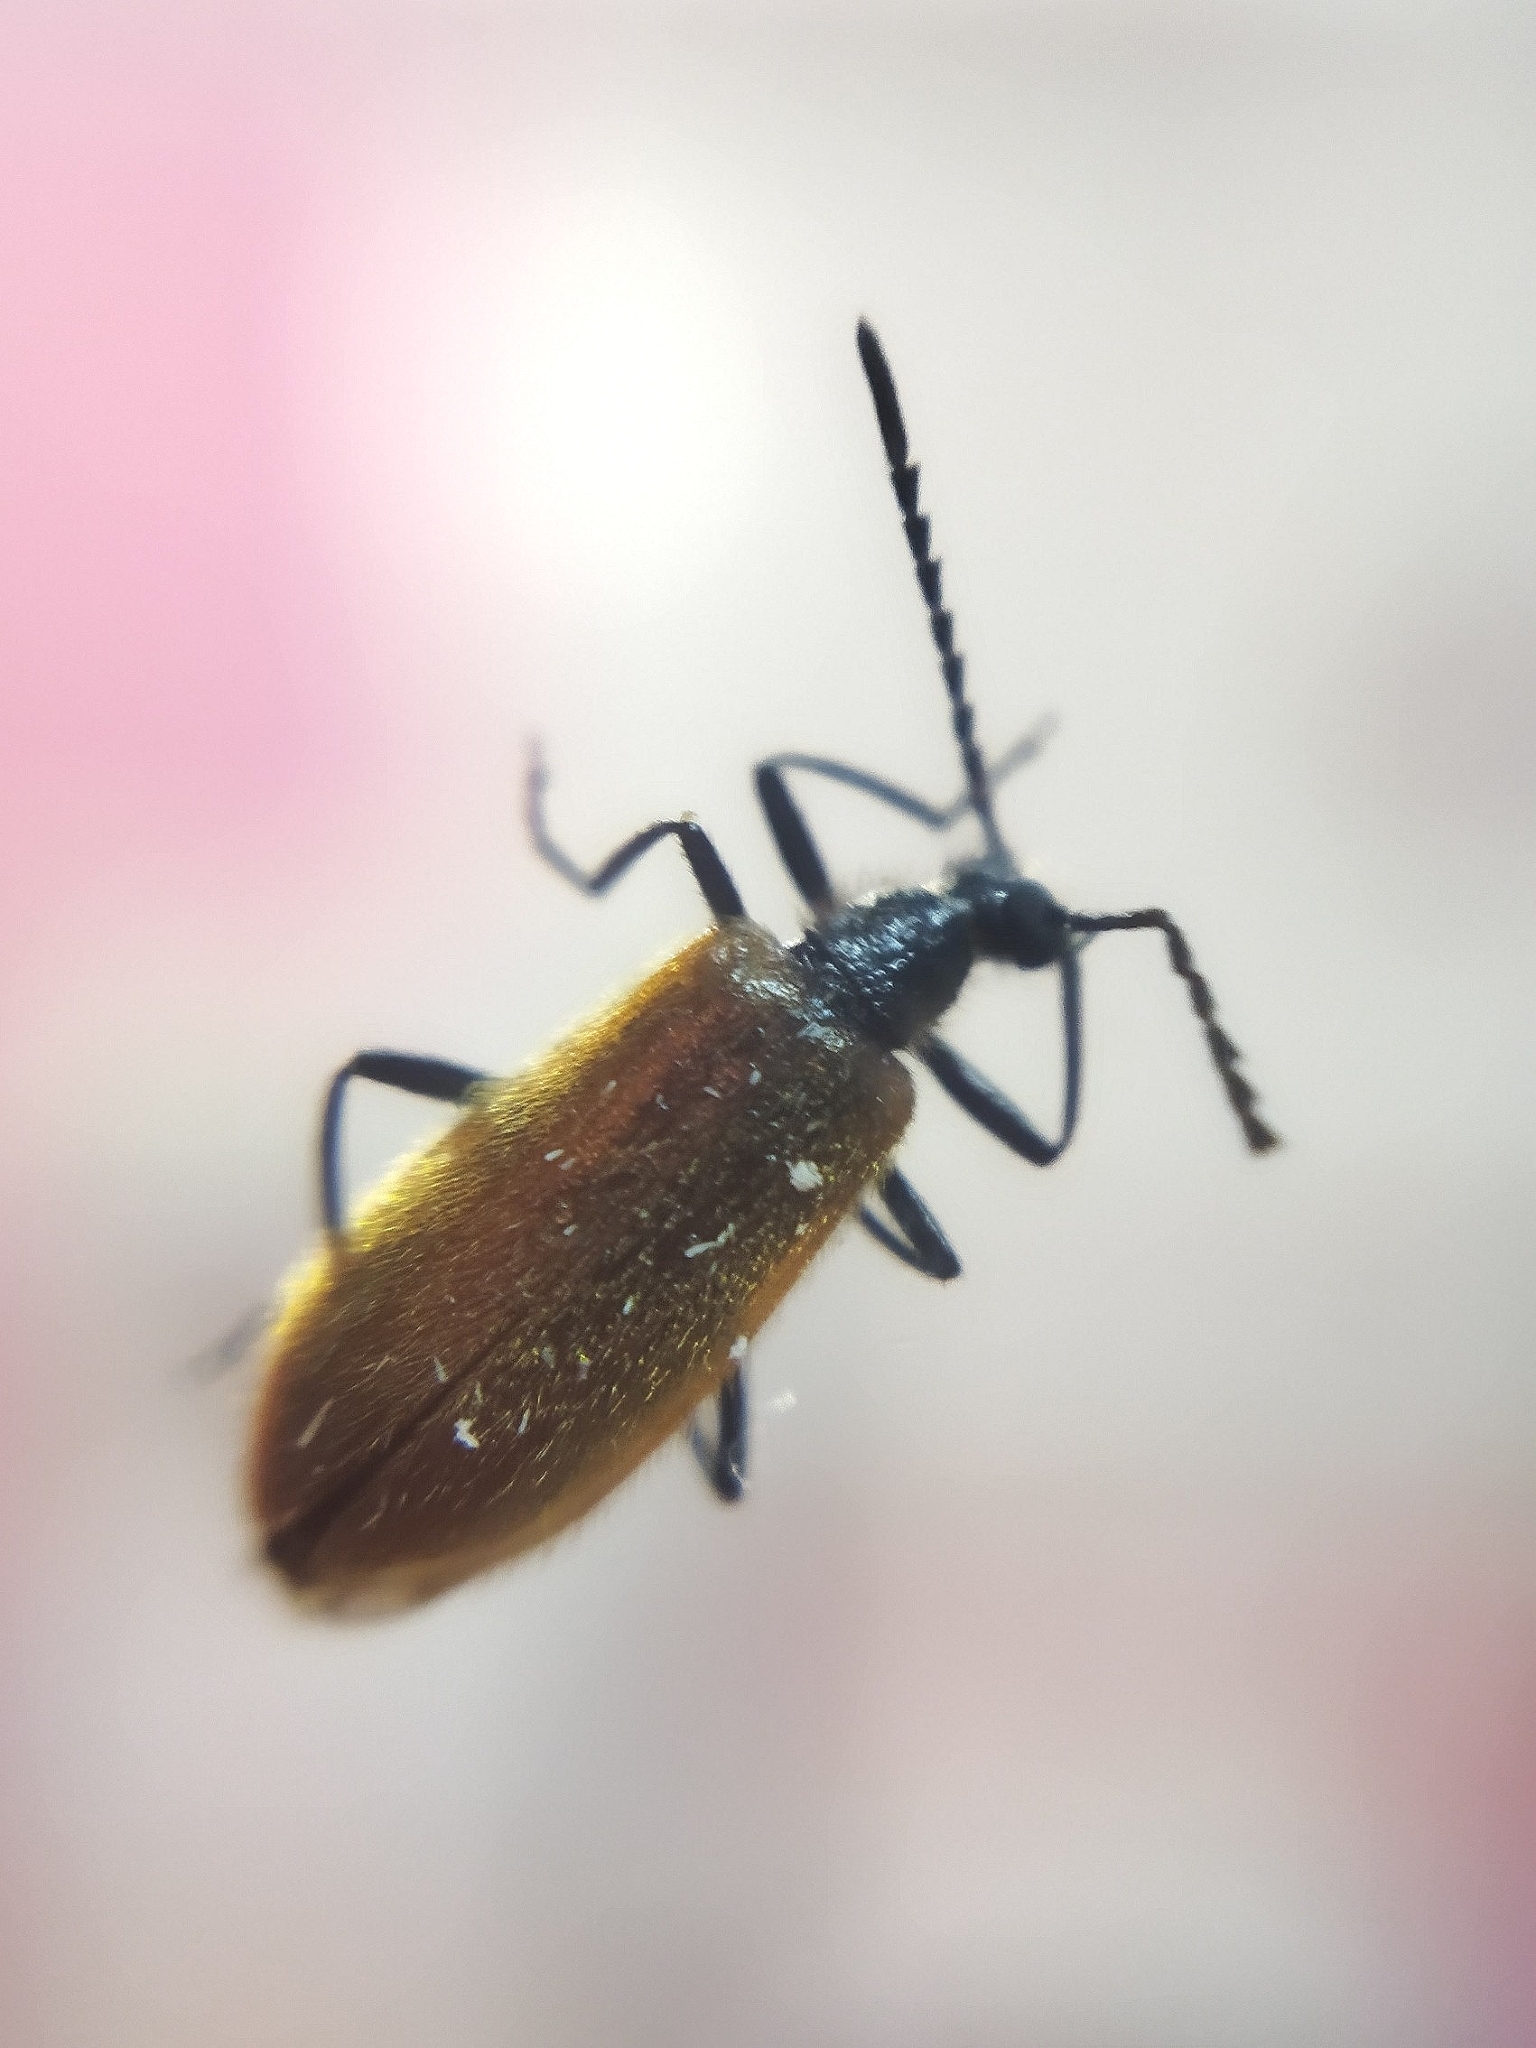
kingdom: Animalia
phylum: Arthropoda
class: Insecta
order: Coleoptera
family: Tenebrionidae
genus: Lagria
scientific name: Lagria hirta
